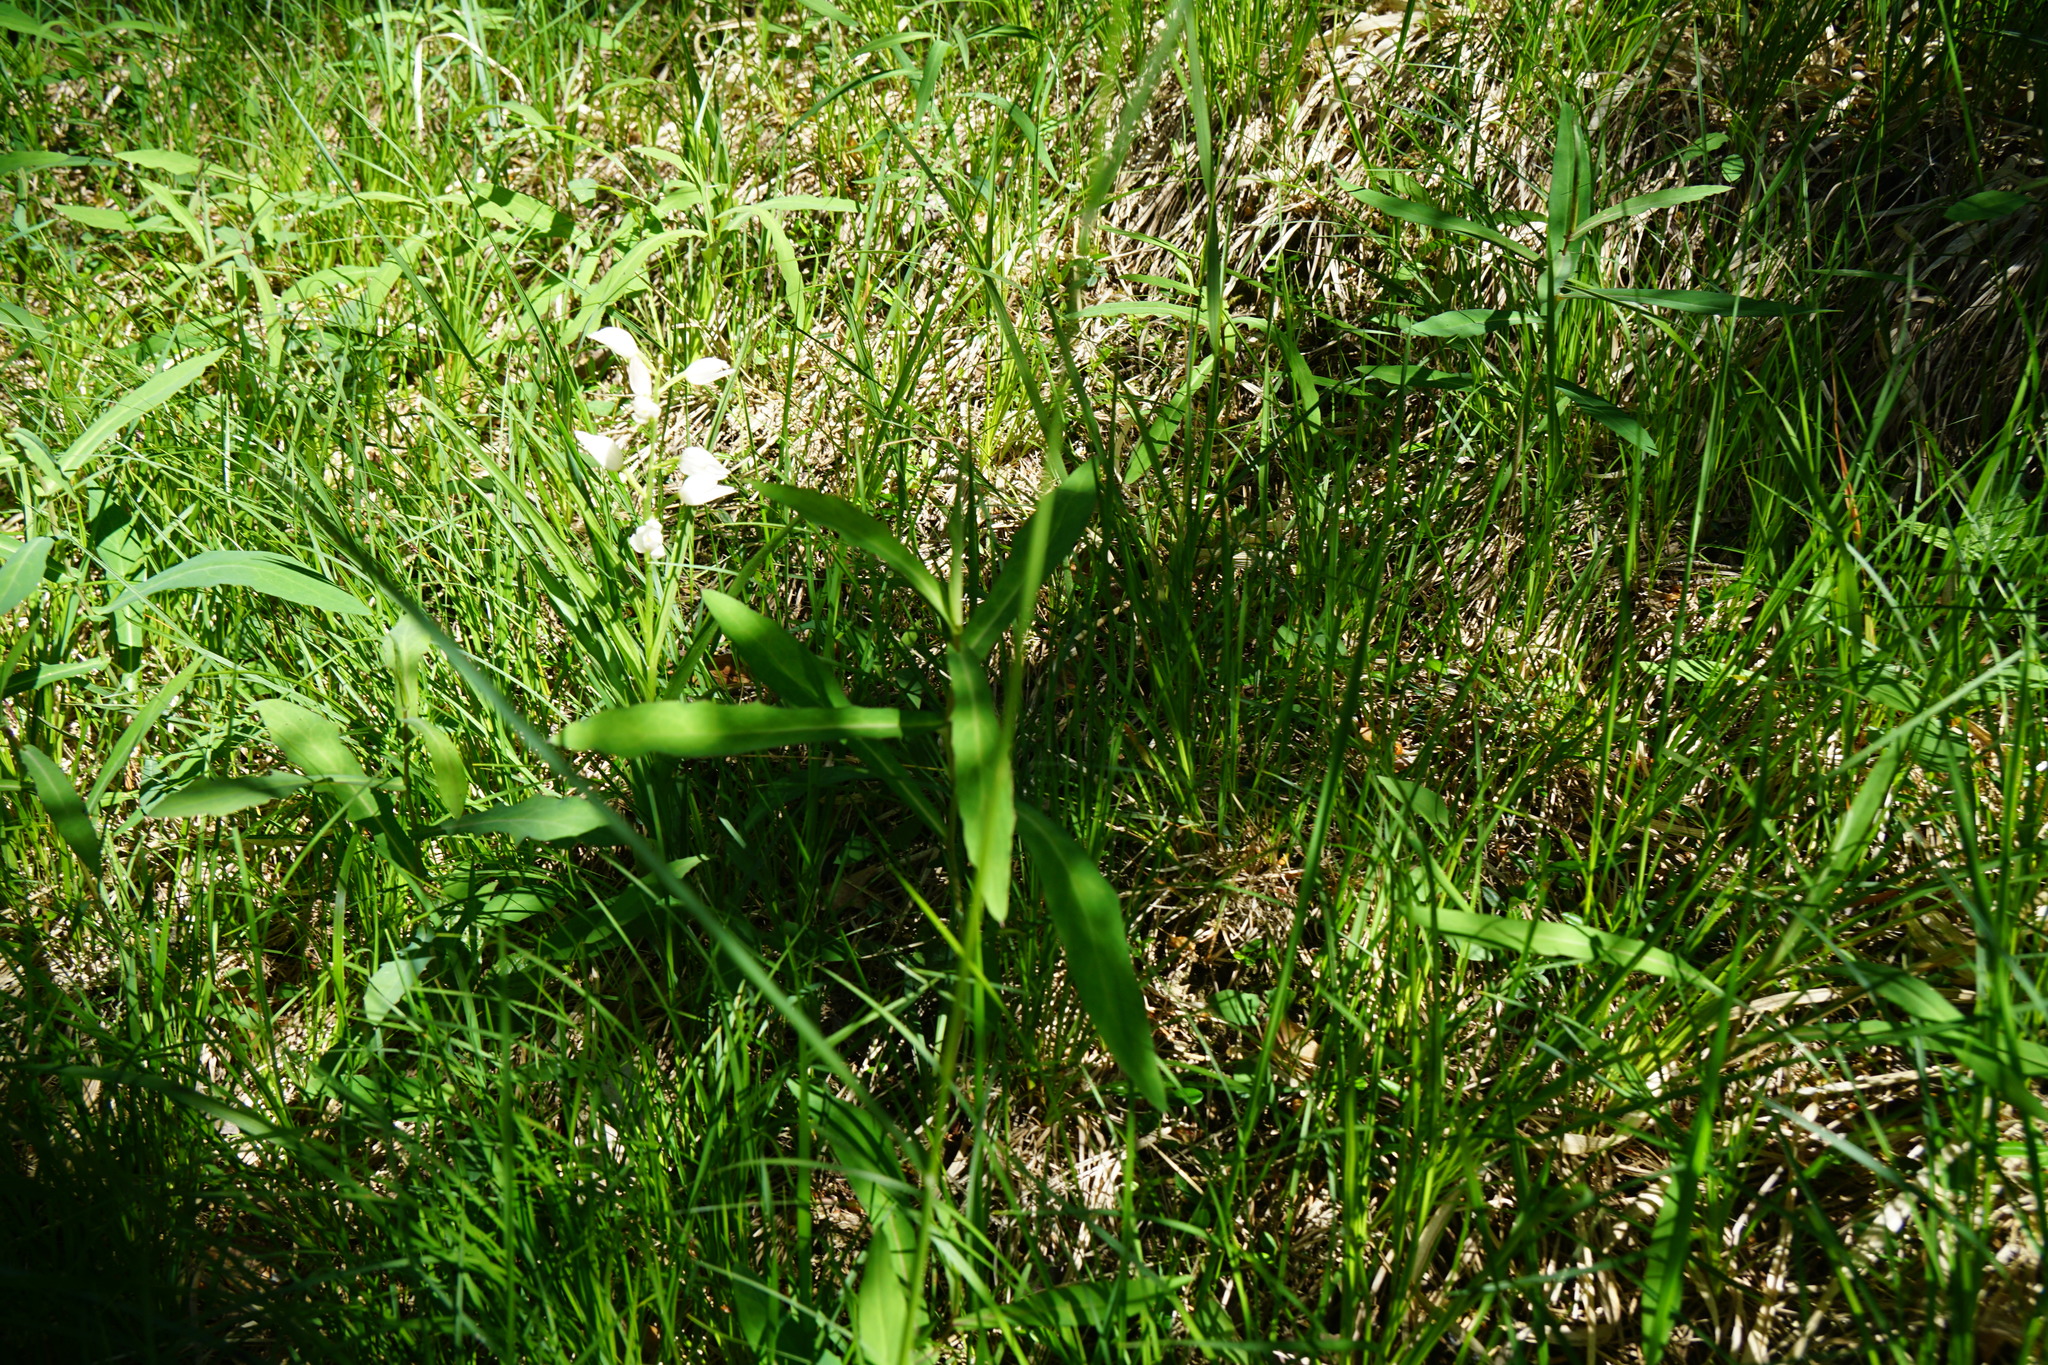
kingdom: Plantae
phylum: Tracheophyta
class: Liliopsida
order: Asparagales
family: Orchidaceae
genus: Cephalanthera
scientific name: Cephalanthera longifolia
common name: Narrow-leaved helleborine
